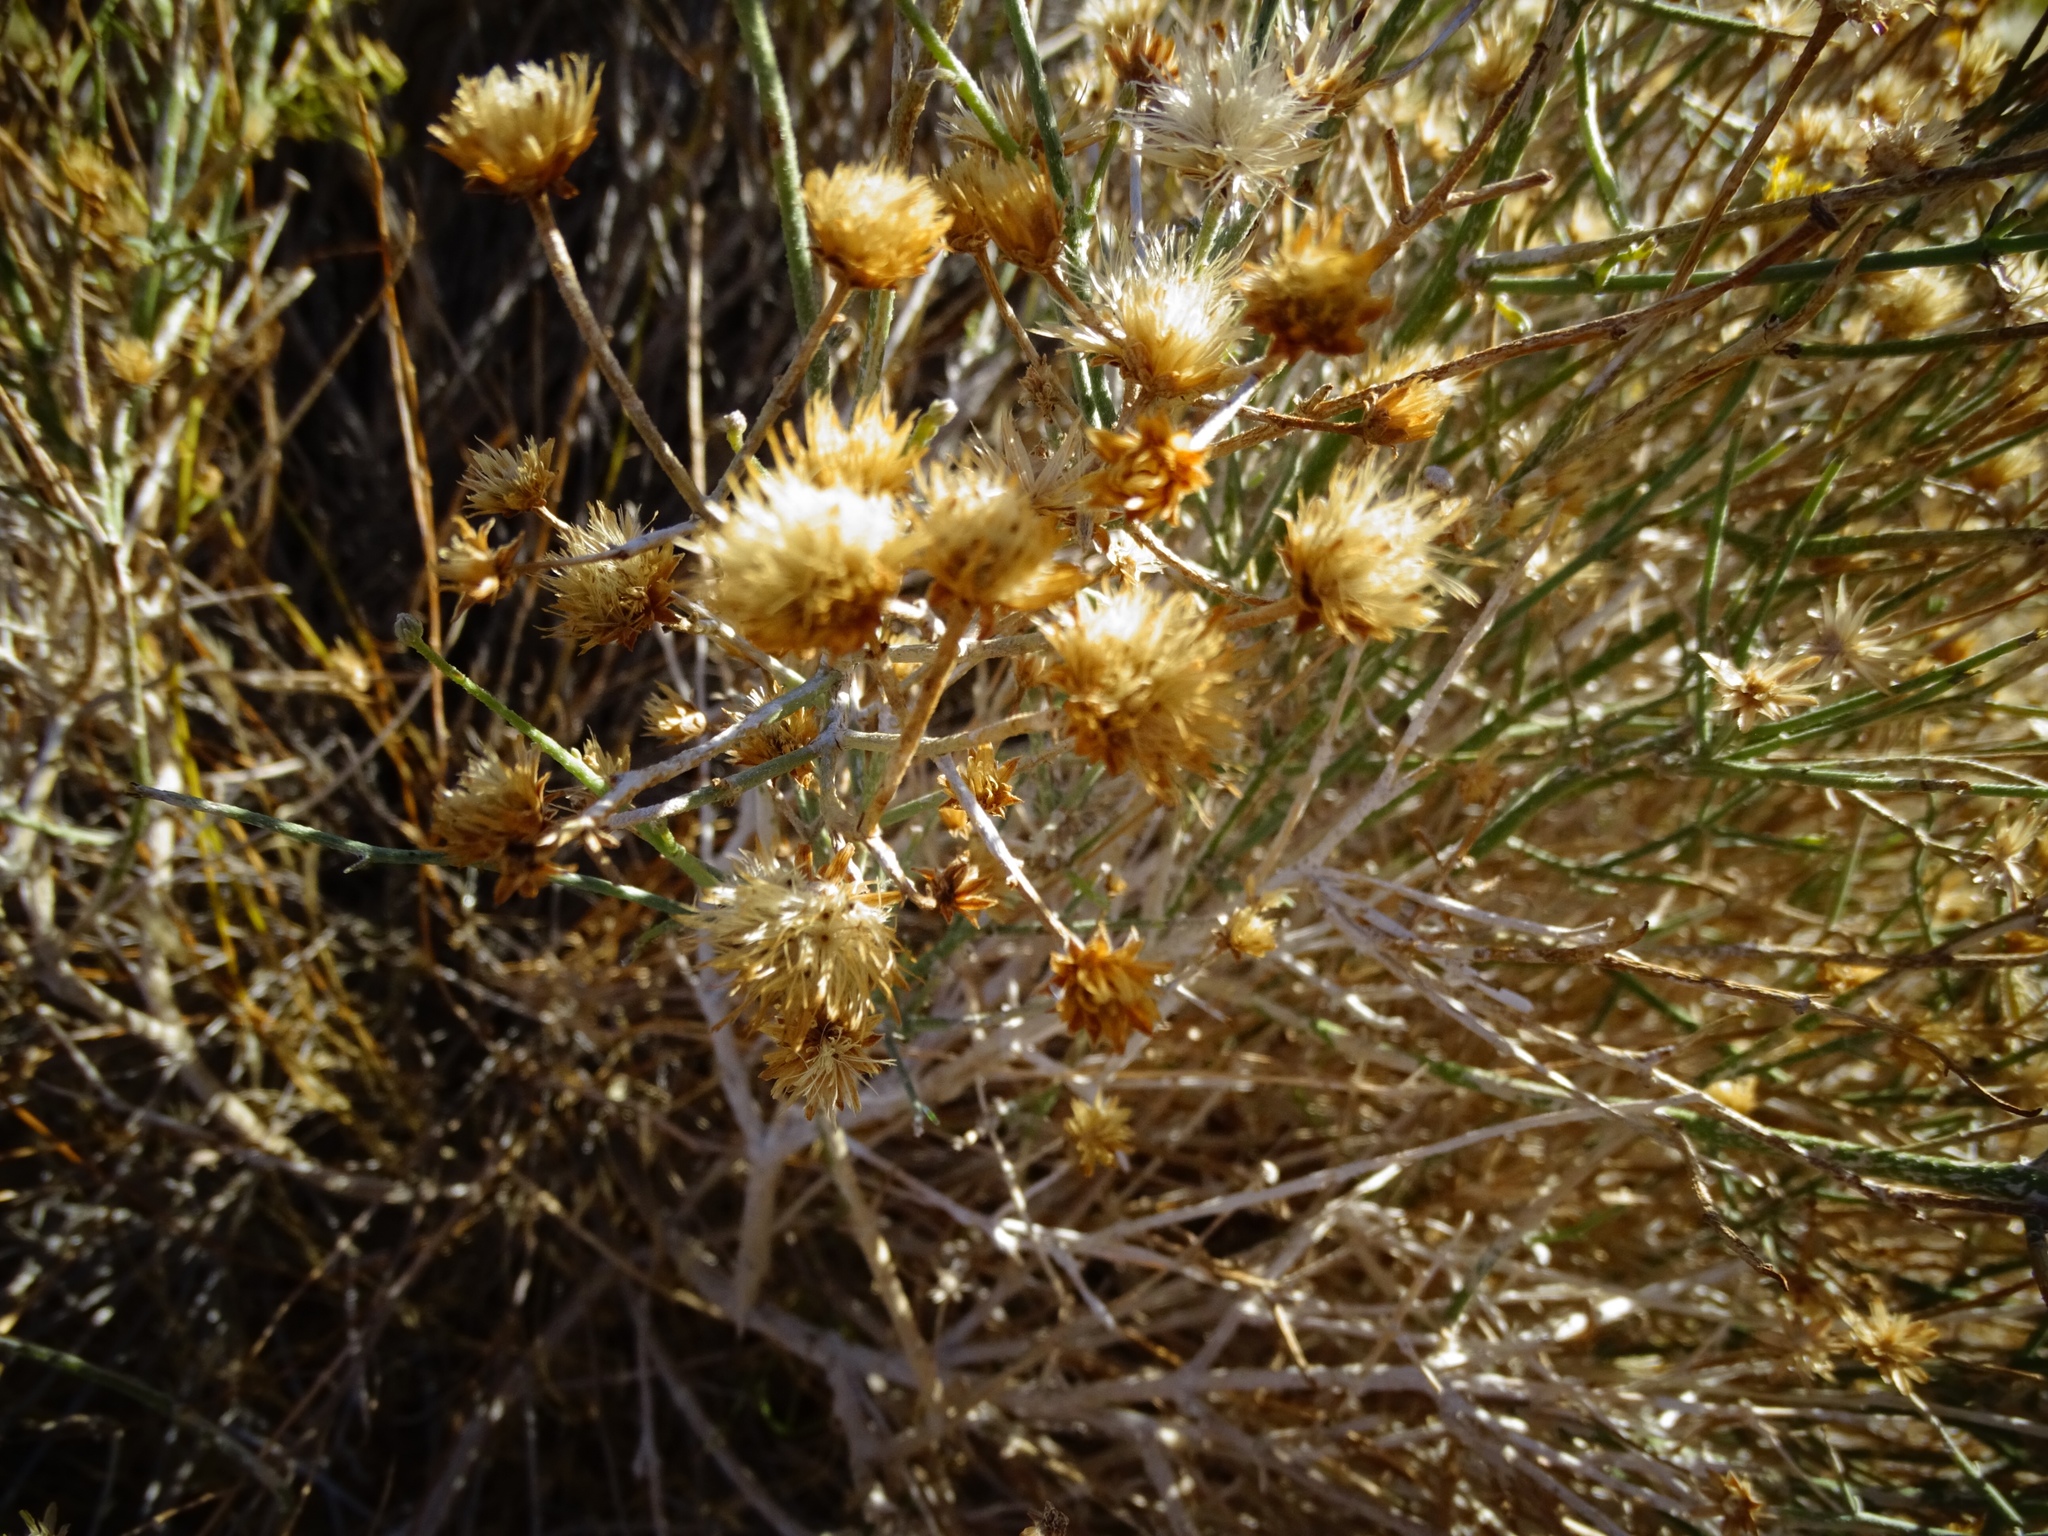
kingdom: Plantae
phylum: Tracheophyta
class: Magnoliopsida
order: Asterales
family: Asteraceae
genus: Bebbia
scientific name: Bebbia juncea
